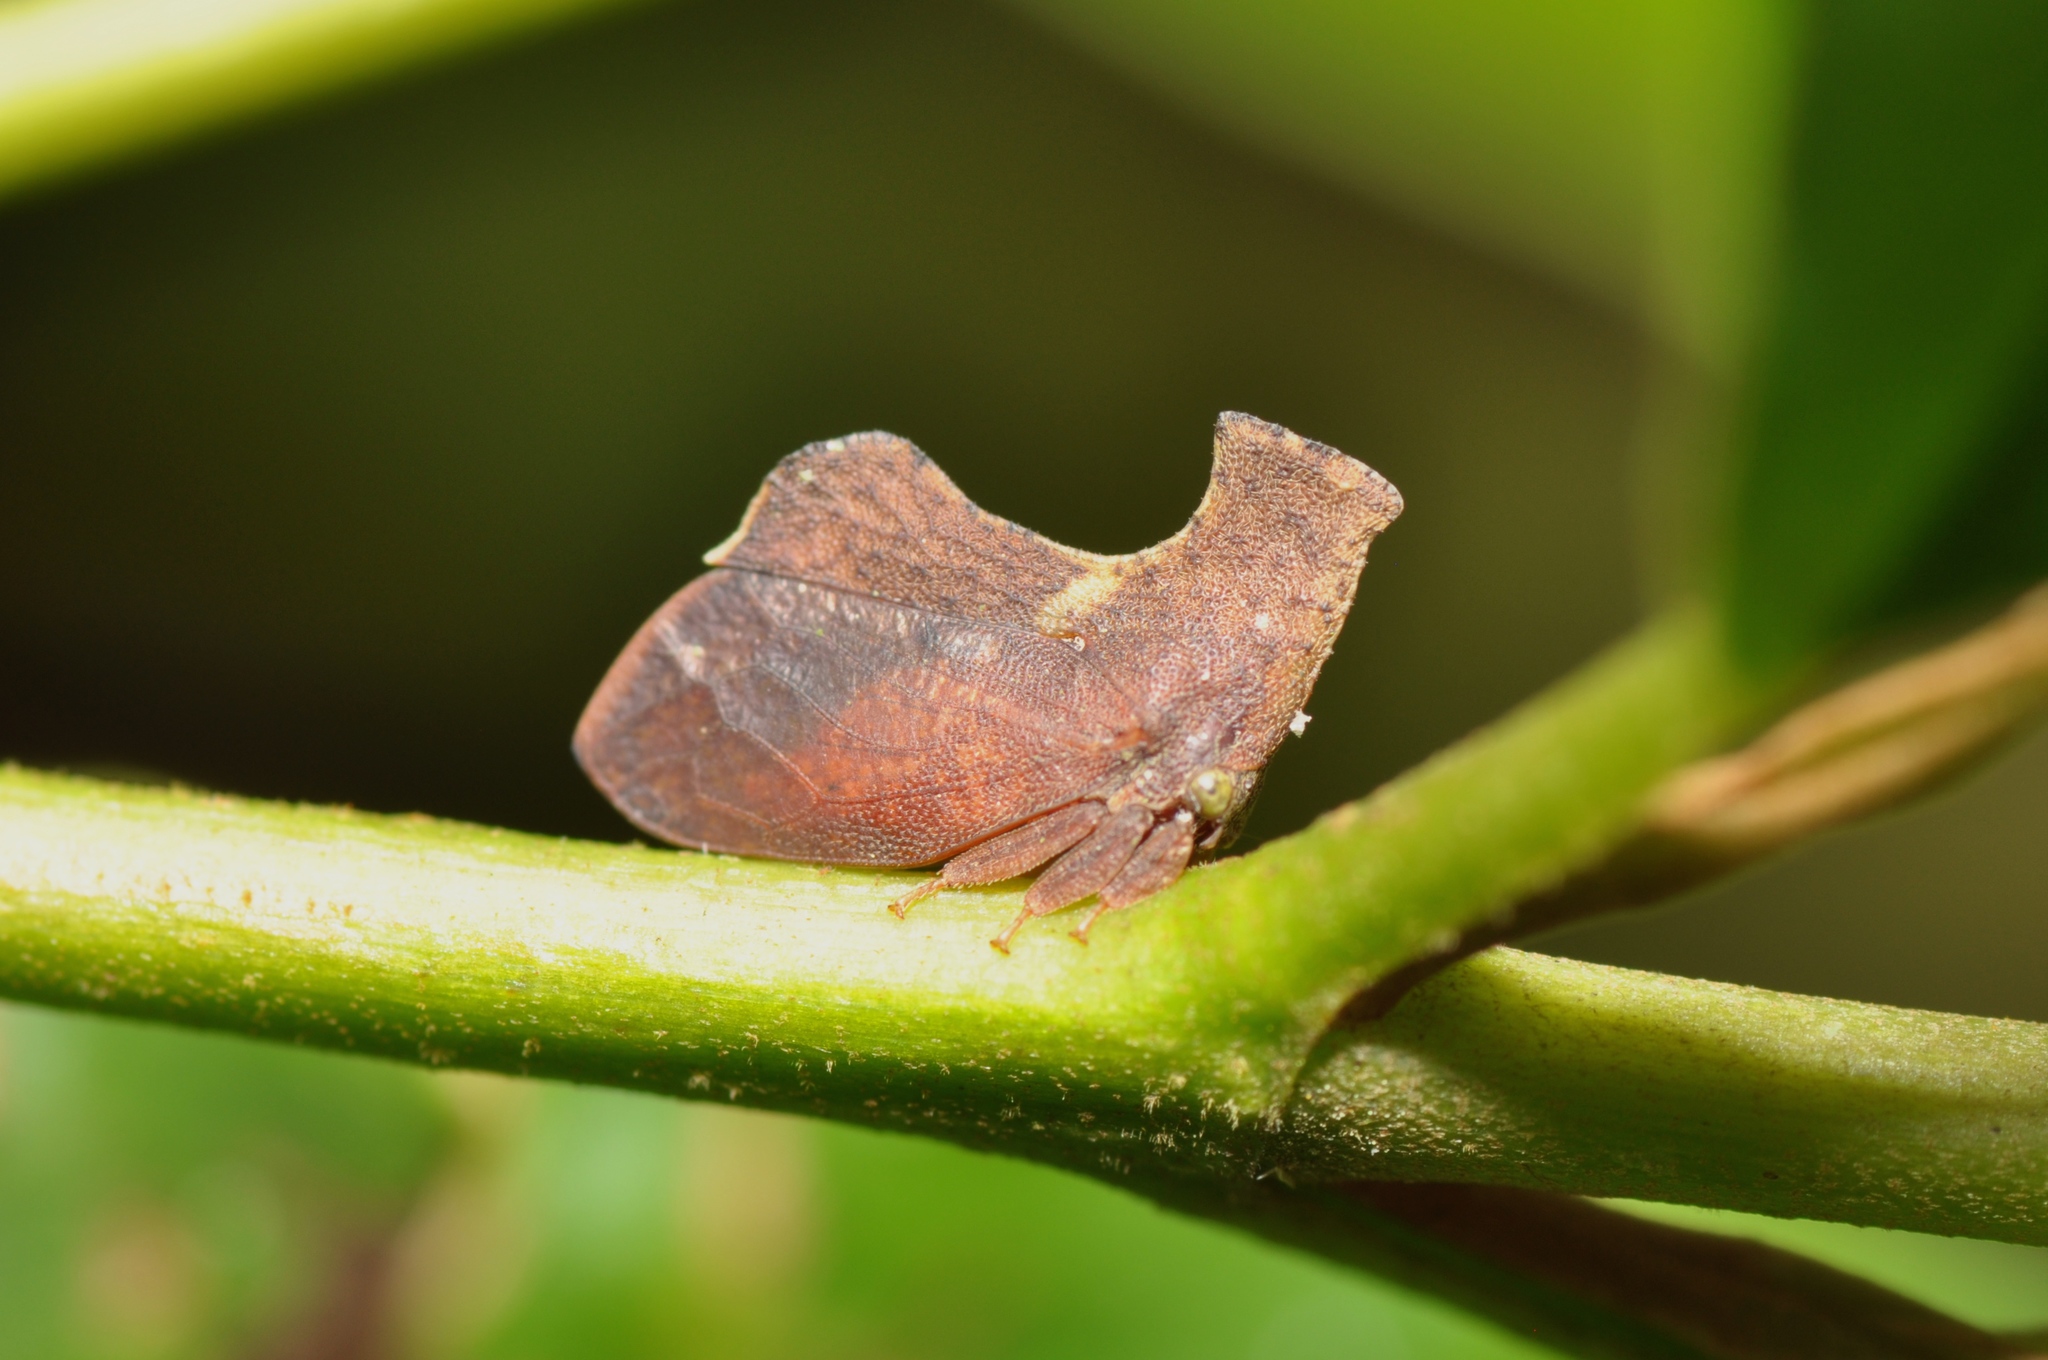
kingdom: Animalia
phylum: Arthropoda
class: Insecta
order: Hemiptera
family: Membracidae
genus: Stegaspis
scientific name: Stegaspis fronditia
